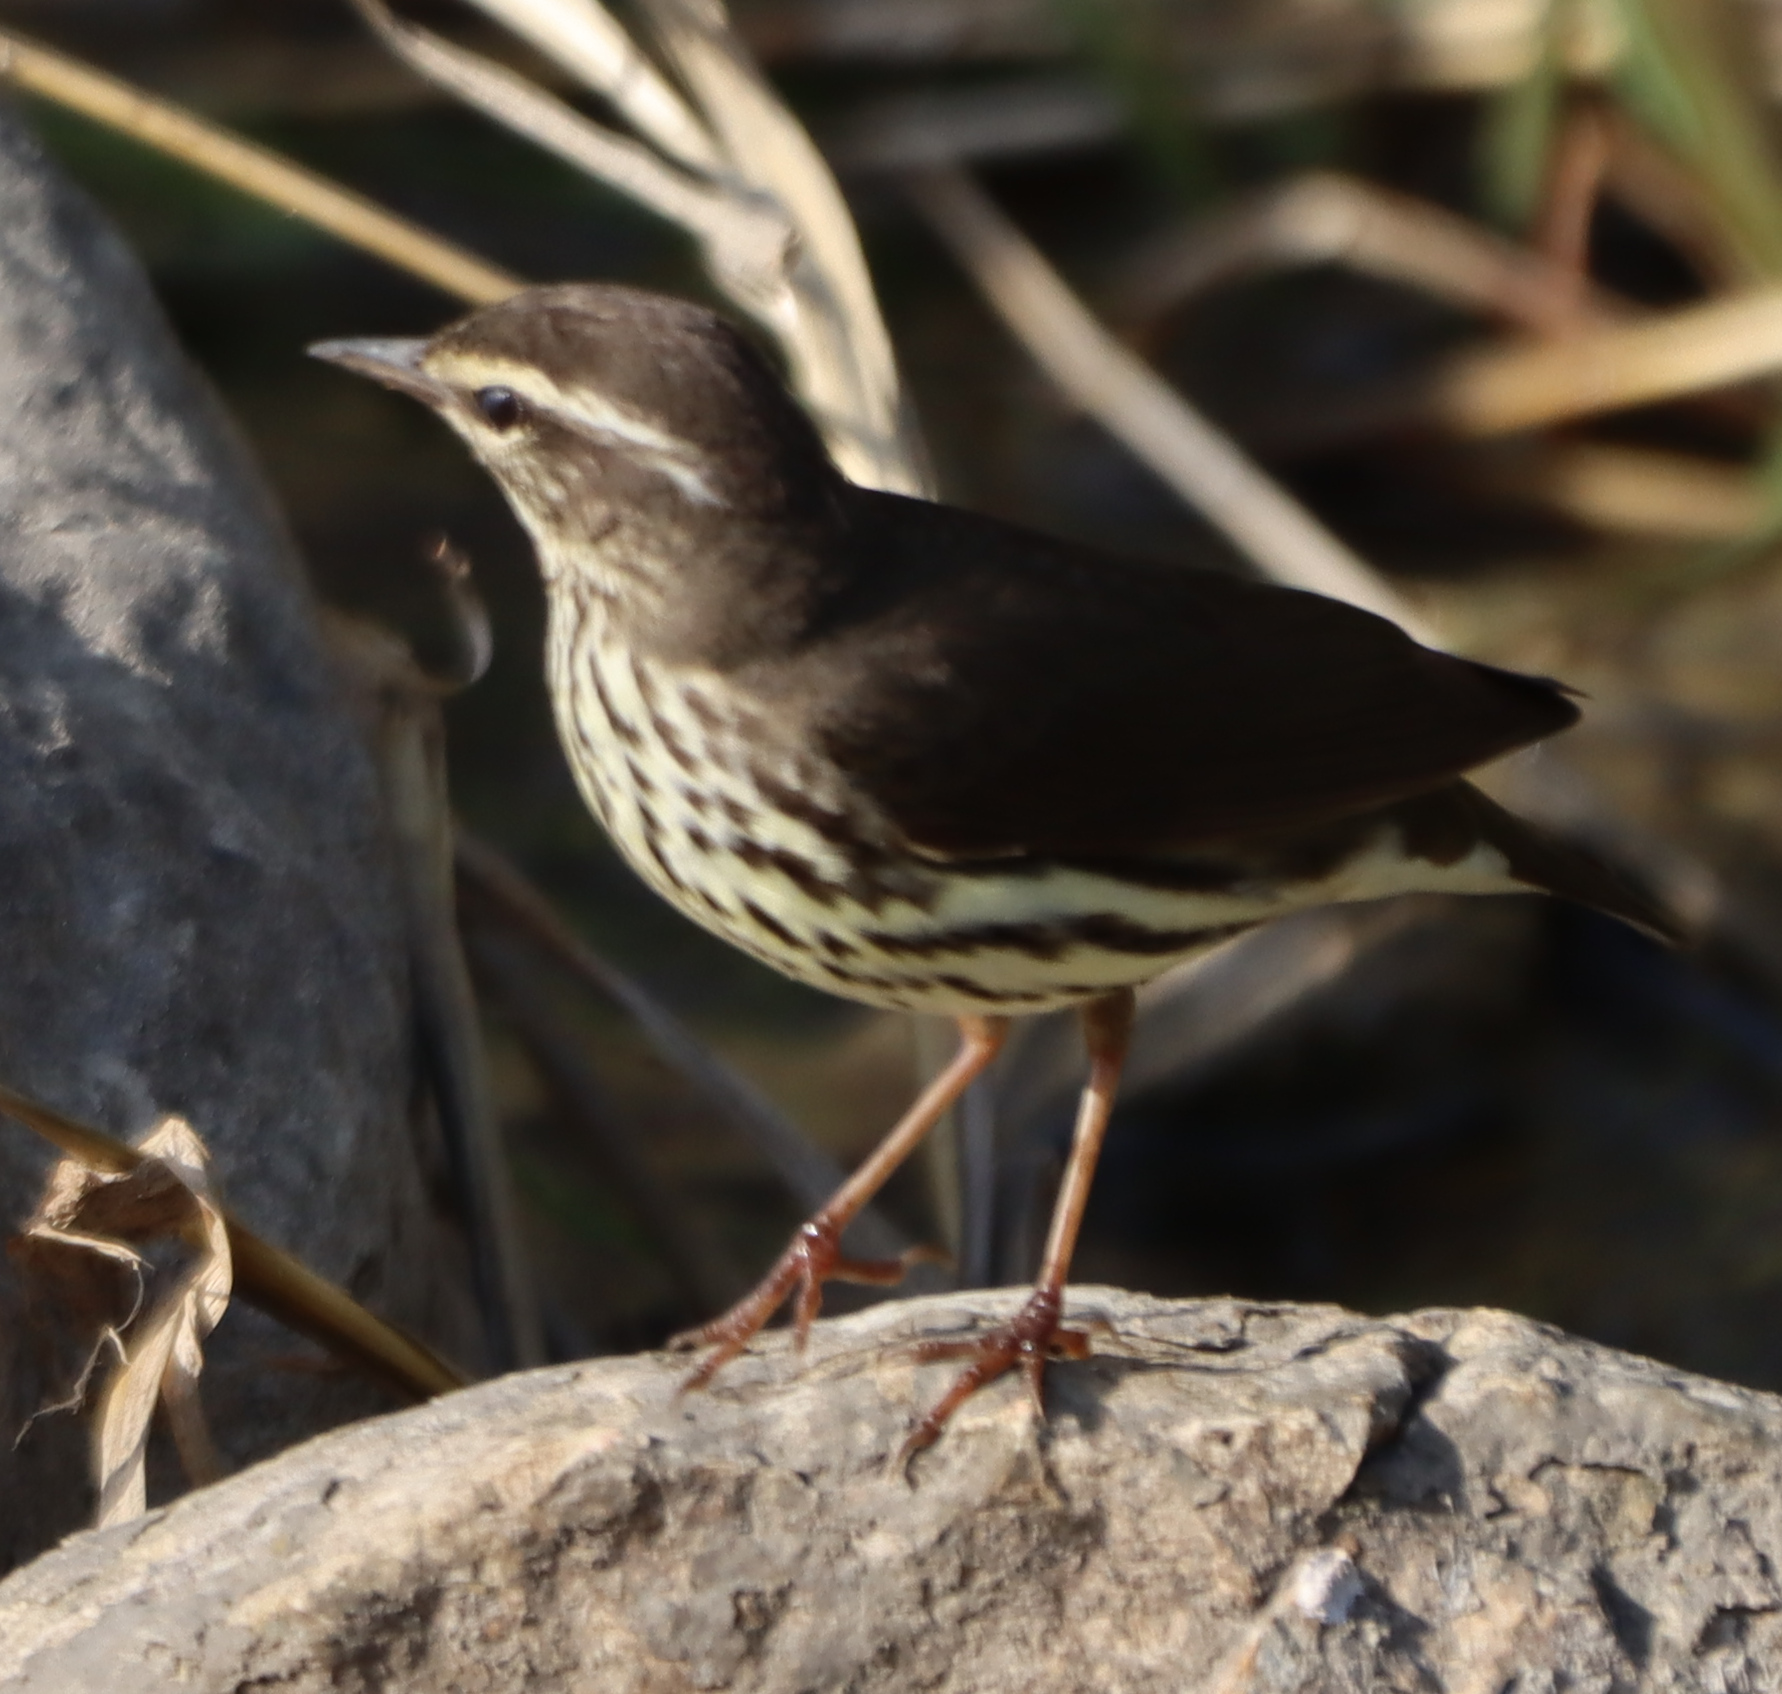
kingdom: Animalia
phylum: Chordata
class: Aves
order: Passeriformes
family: Parulidae
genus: Parkesia
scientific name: Parkesia noveboracensis
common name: Northern waterthrush
